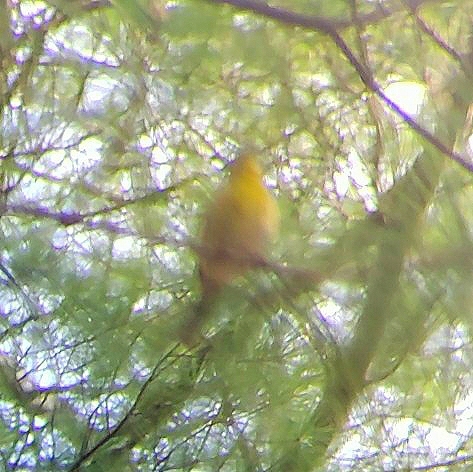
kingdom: Animalia
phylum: Chordata
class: Aves
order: Passeriformes
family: Parulidae
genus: Setophaga
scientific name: Setophaga pinus
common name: Pine warbler
